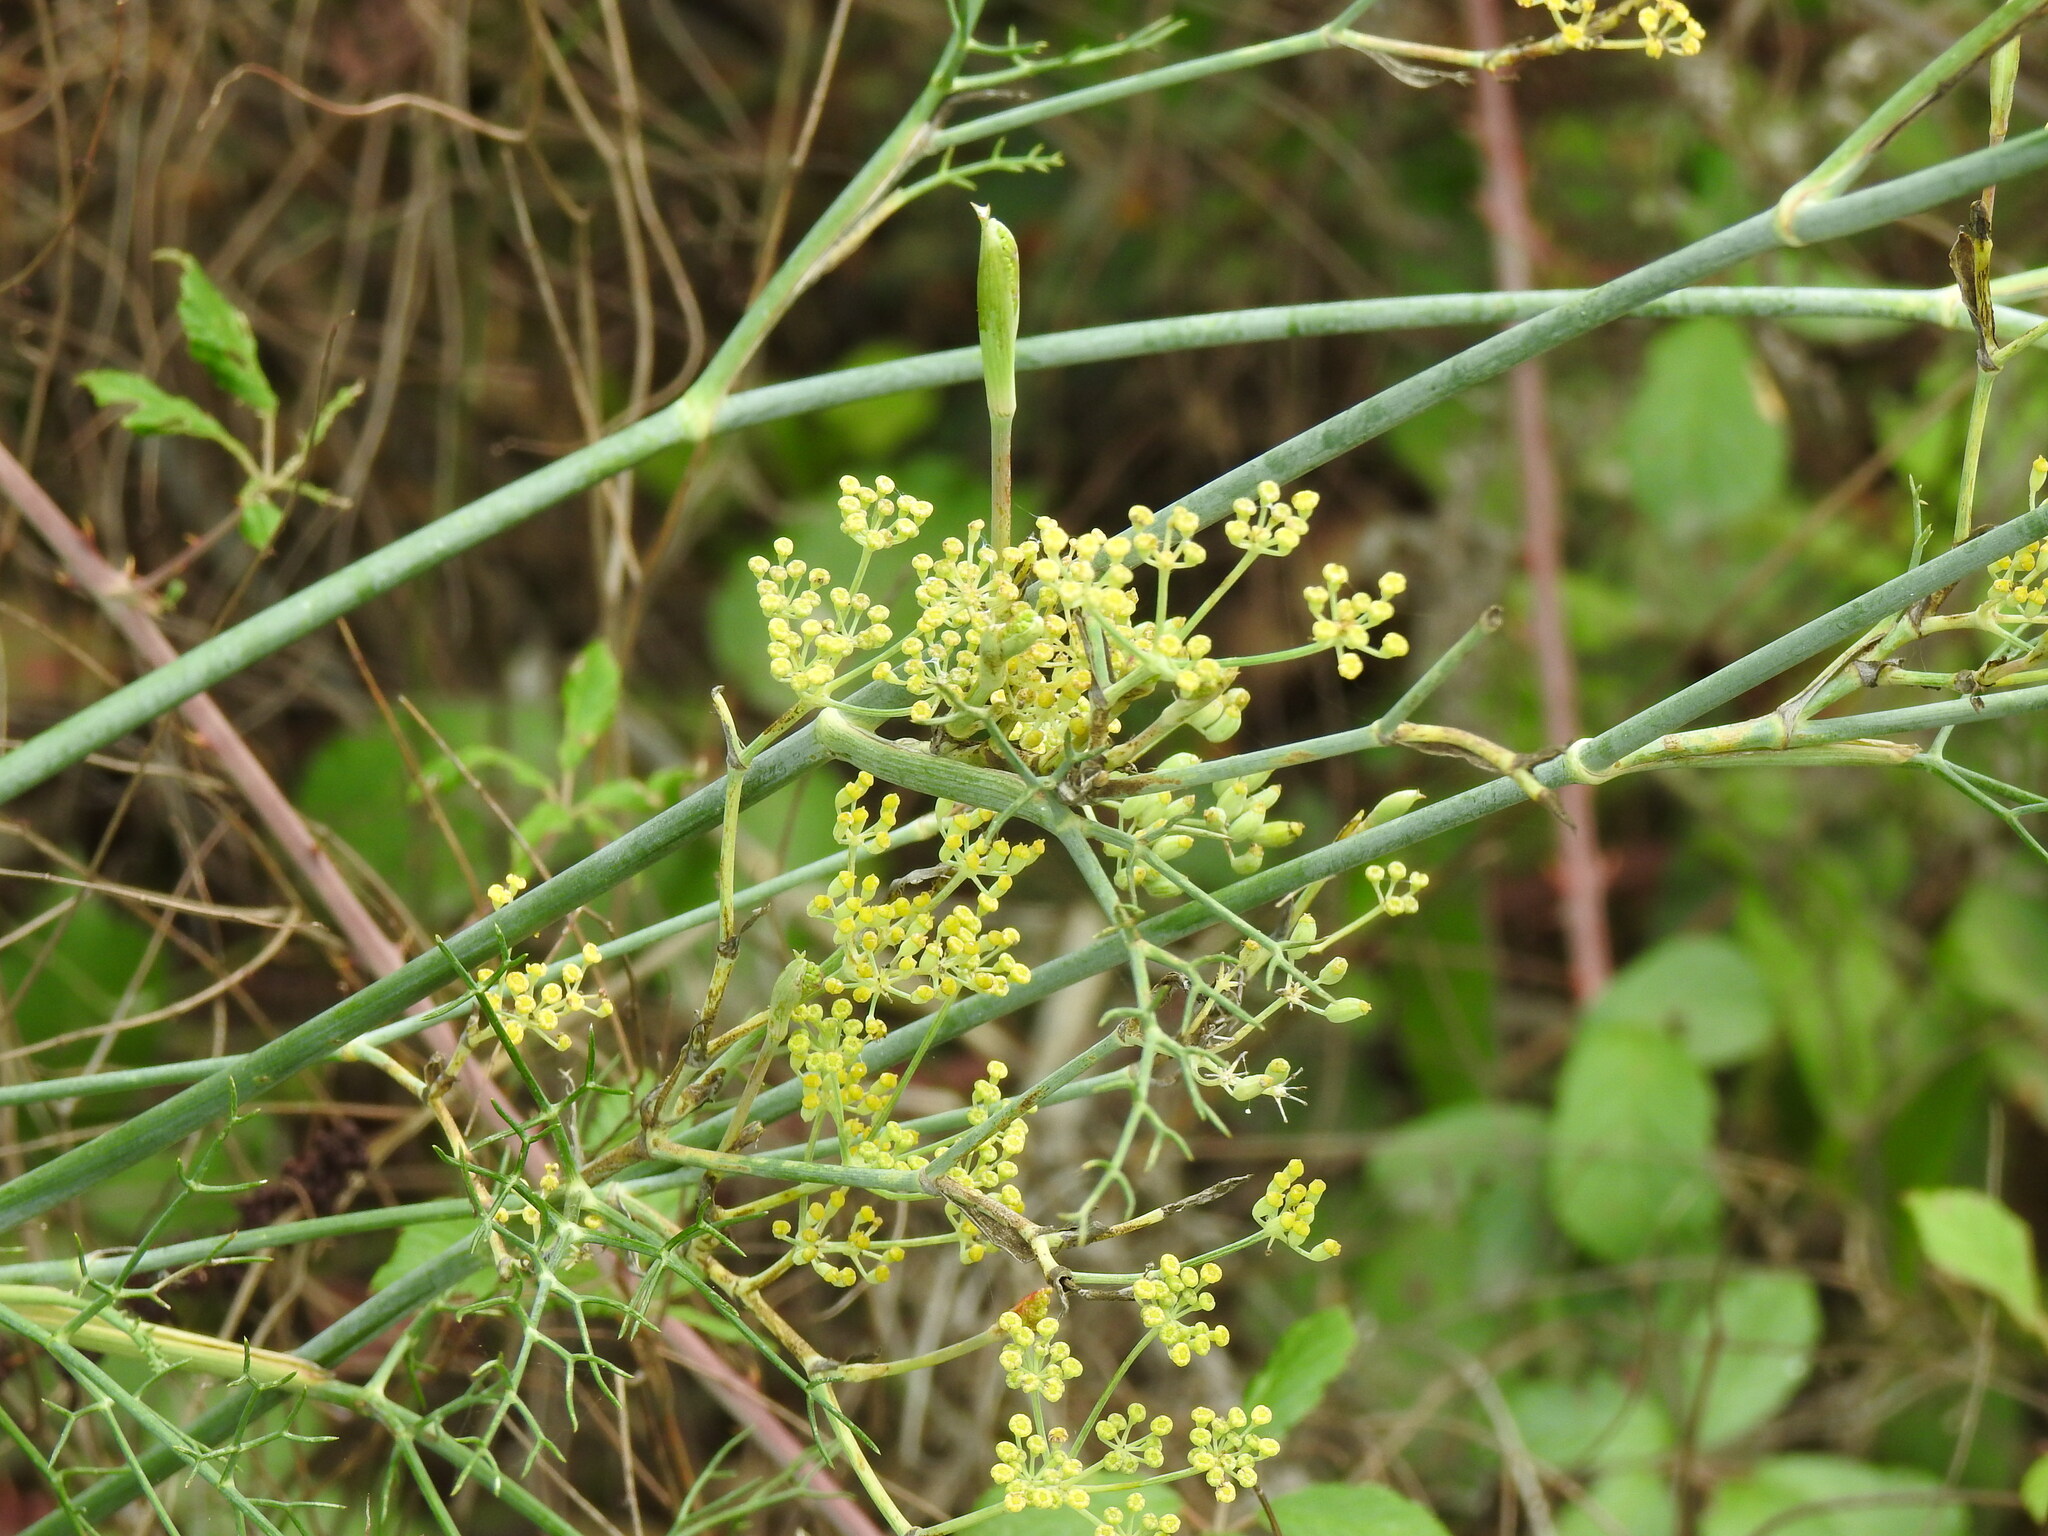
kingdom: Plantae
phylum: Tracheophyta
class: Magnoliopsida
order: Apiales
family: Apiaceae
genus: Foeniculum
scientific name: Foeniculum vulgare
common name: Fennel
